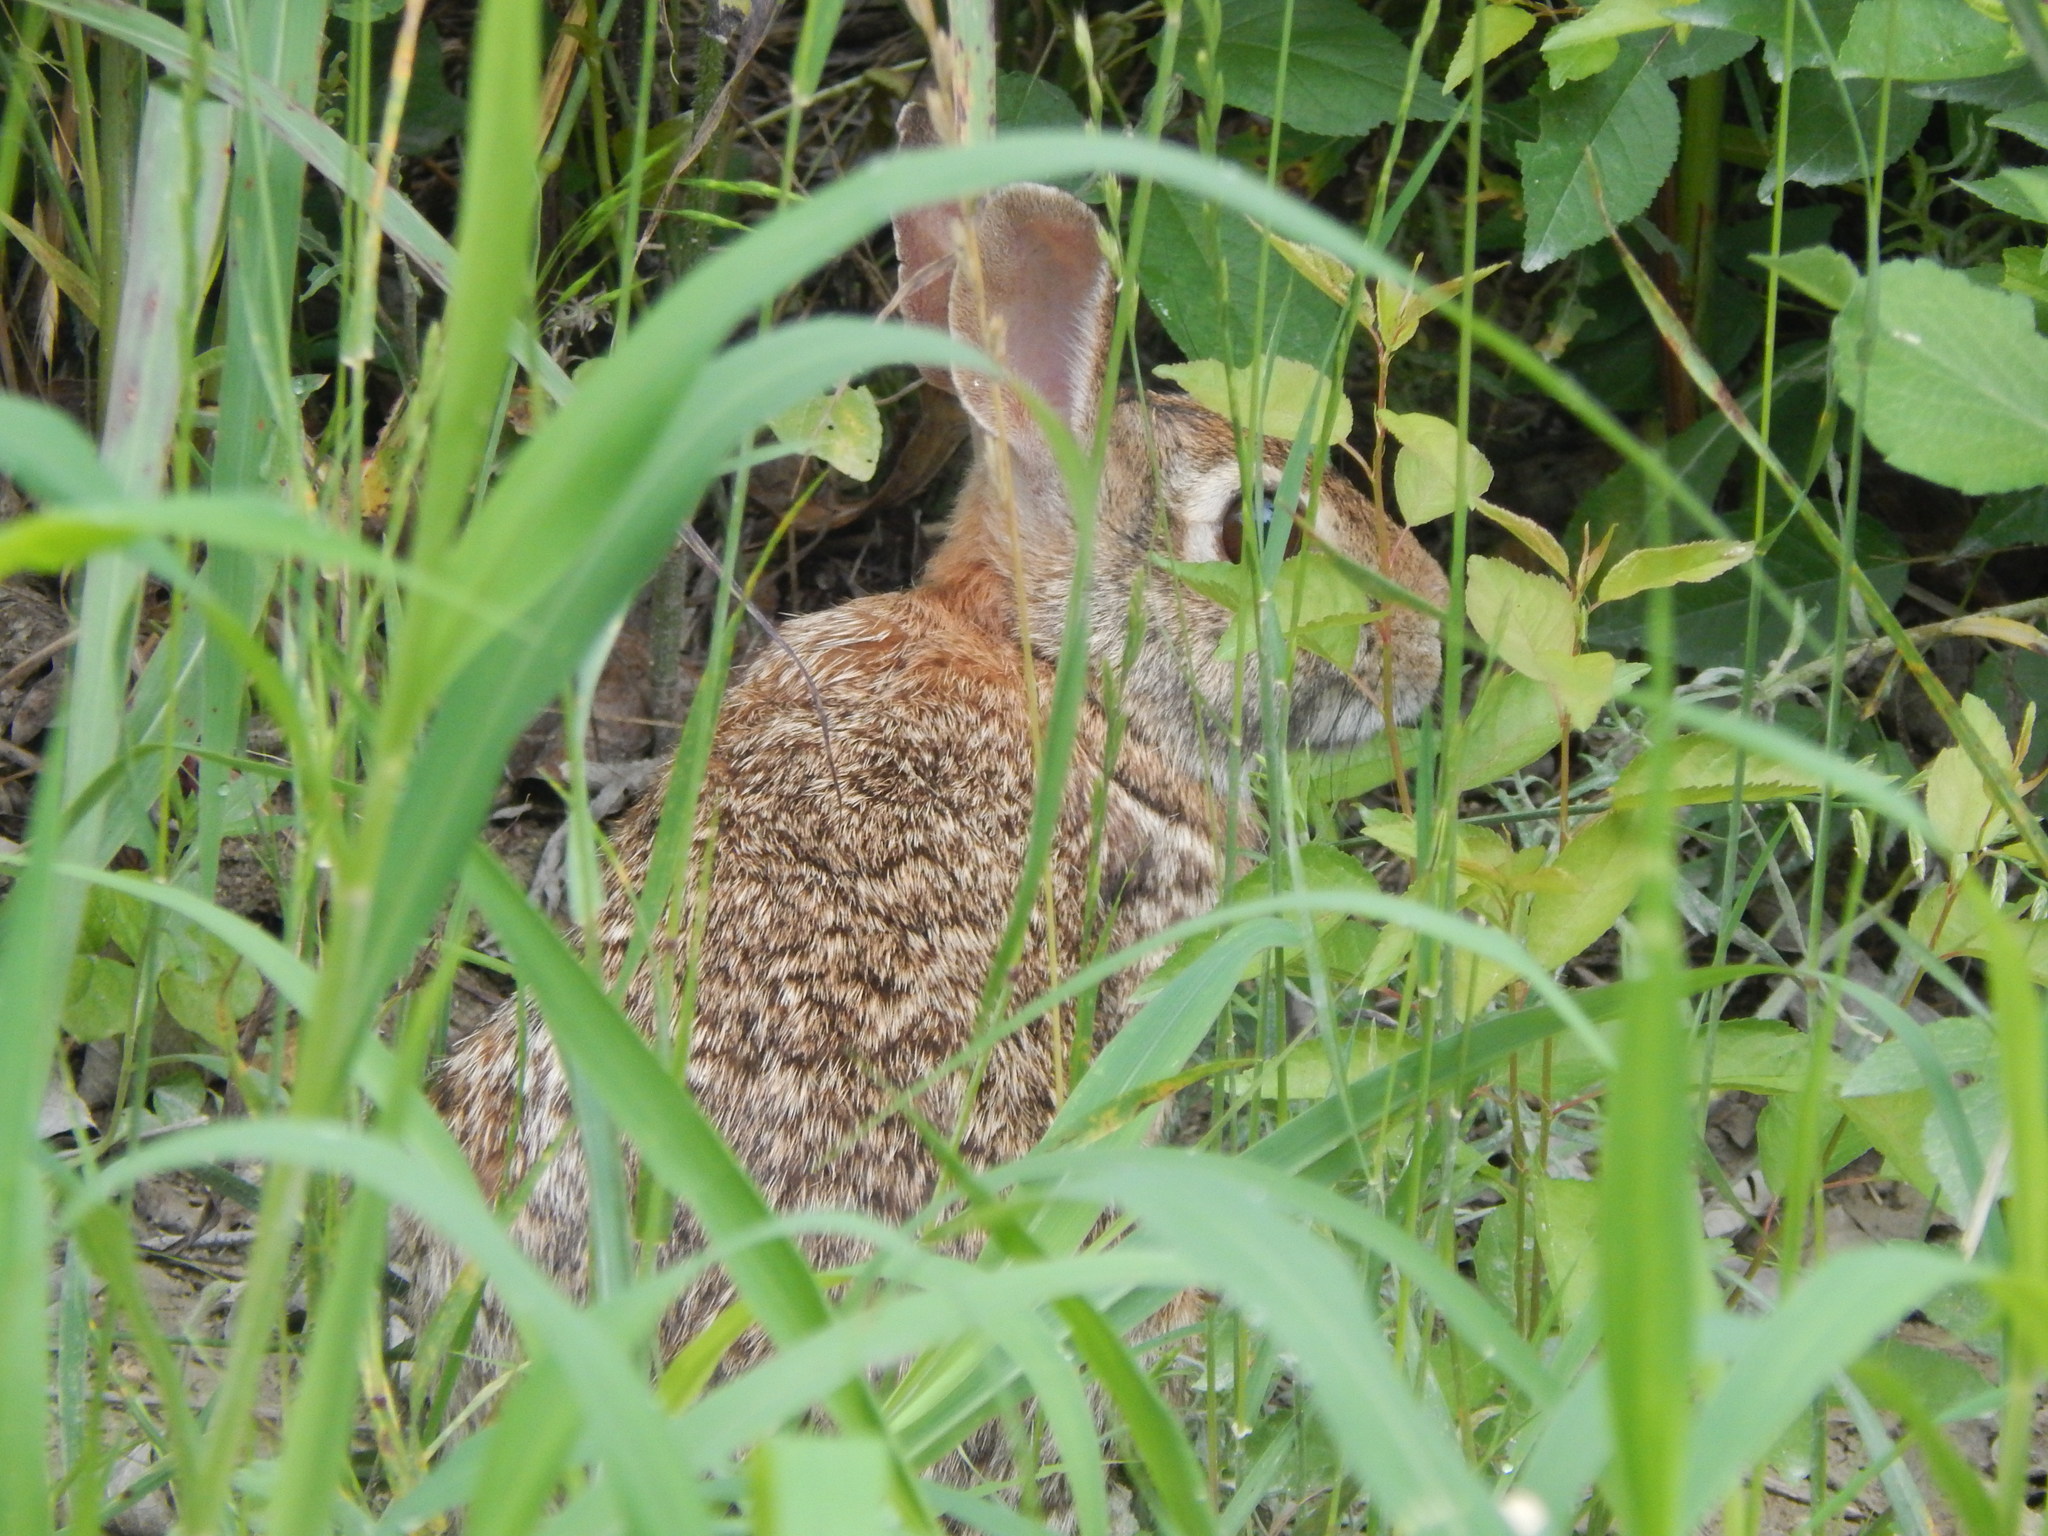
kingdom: Animalia
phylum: Chordata
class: Mammalia
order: Lagomorpha
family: Leporidae
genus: Sylvilagus
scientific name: Sylvilagus floridanus
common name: Eastern cottontail
